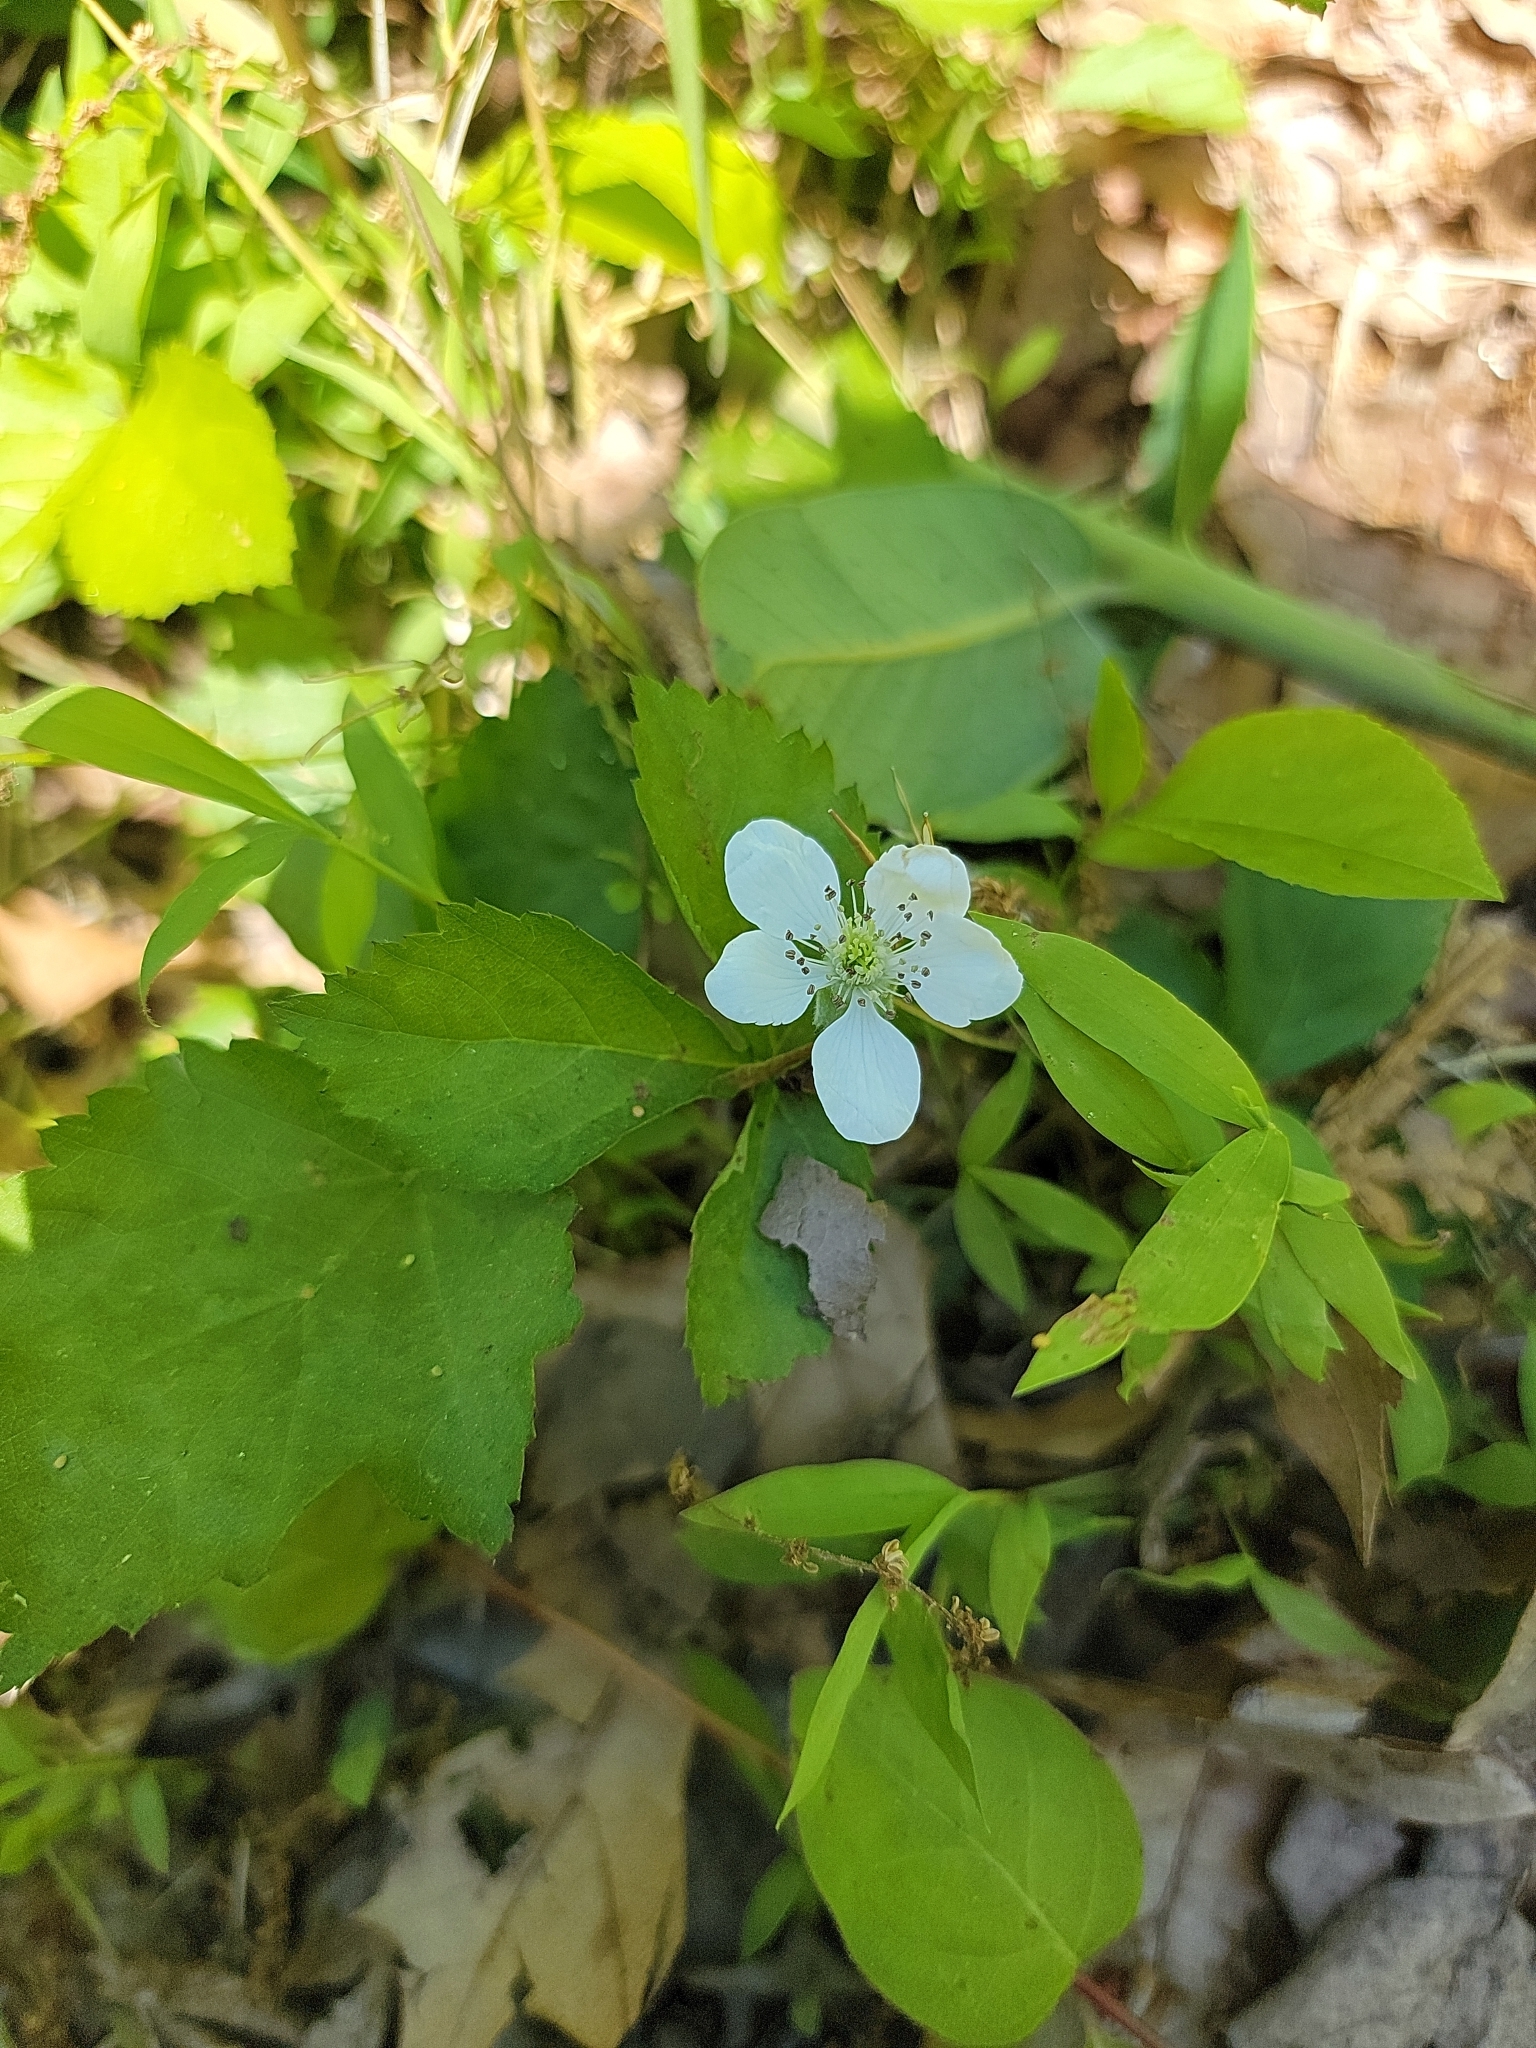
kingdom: Plantae
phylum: Tracheophyta
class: Magnoliopsida
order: Rosales
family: Rosaceae
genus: Rubus
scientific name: Rubus flagellaris
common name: American dewberry
